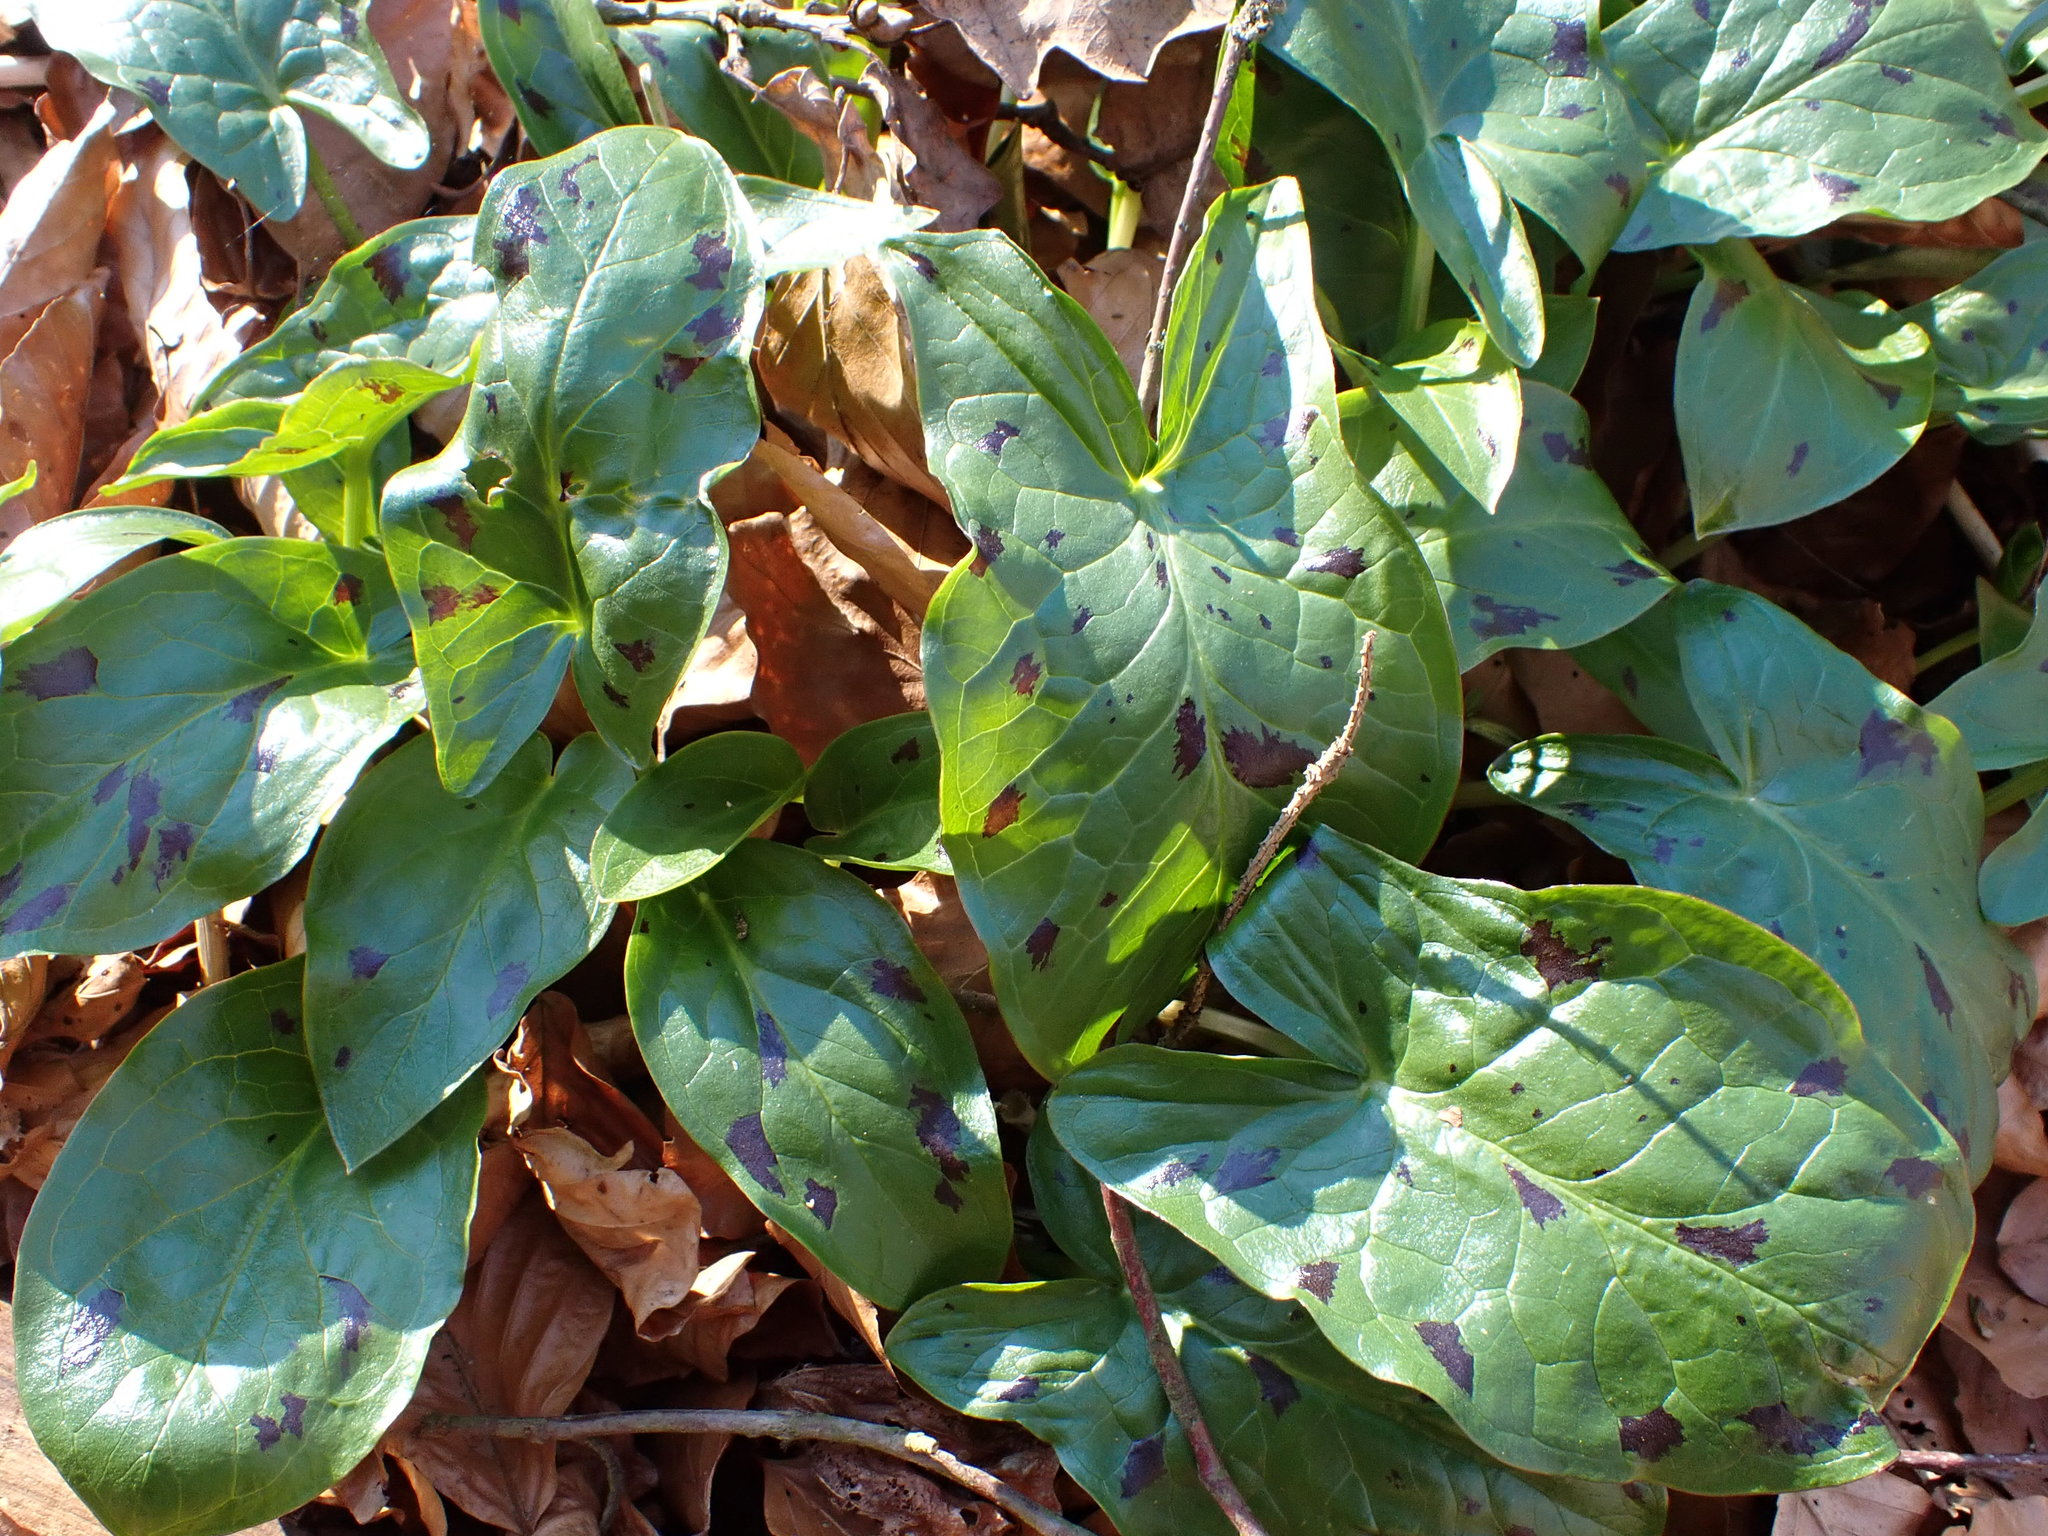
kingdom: Plantae
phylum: Tracheophyta
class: Liliopsida
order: Alismatales
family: Araceae
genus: Arum
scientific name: Arum maculatum
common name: Lords-and-ladies
